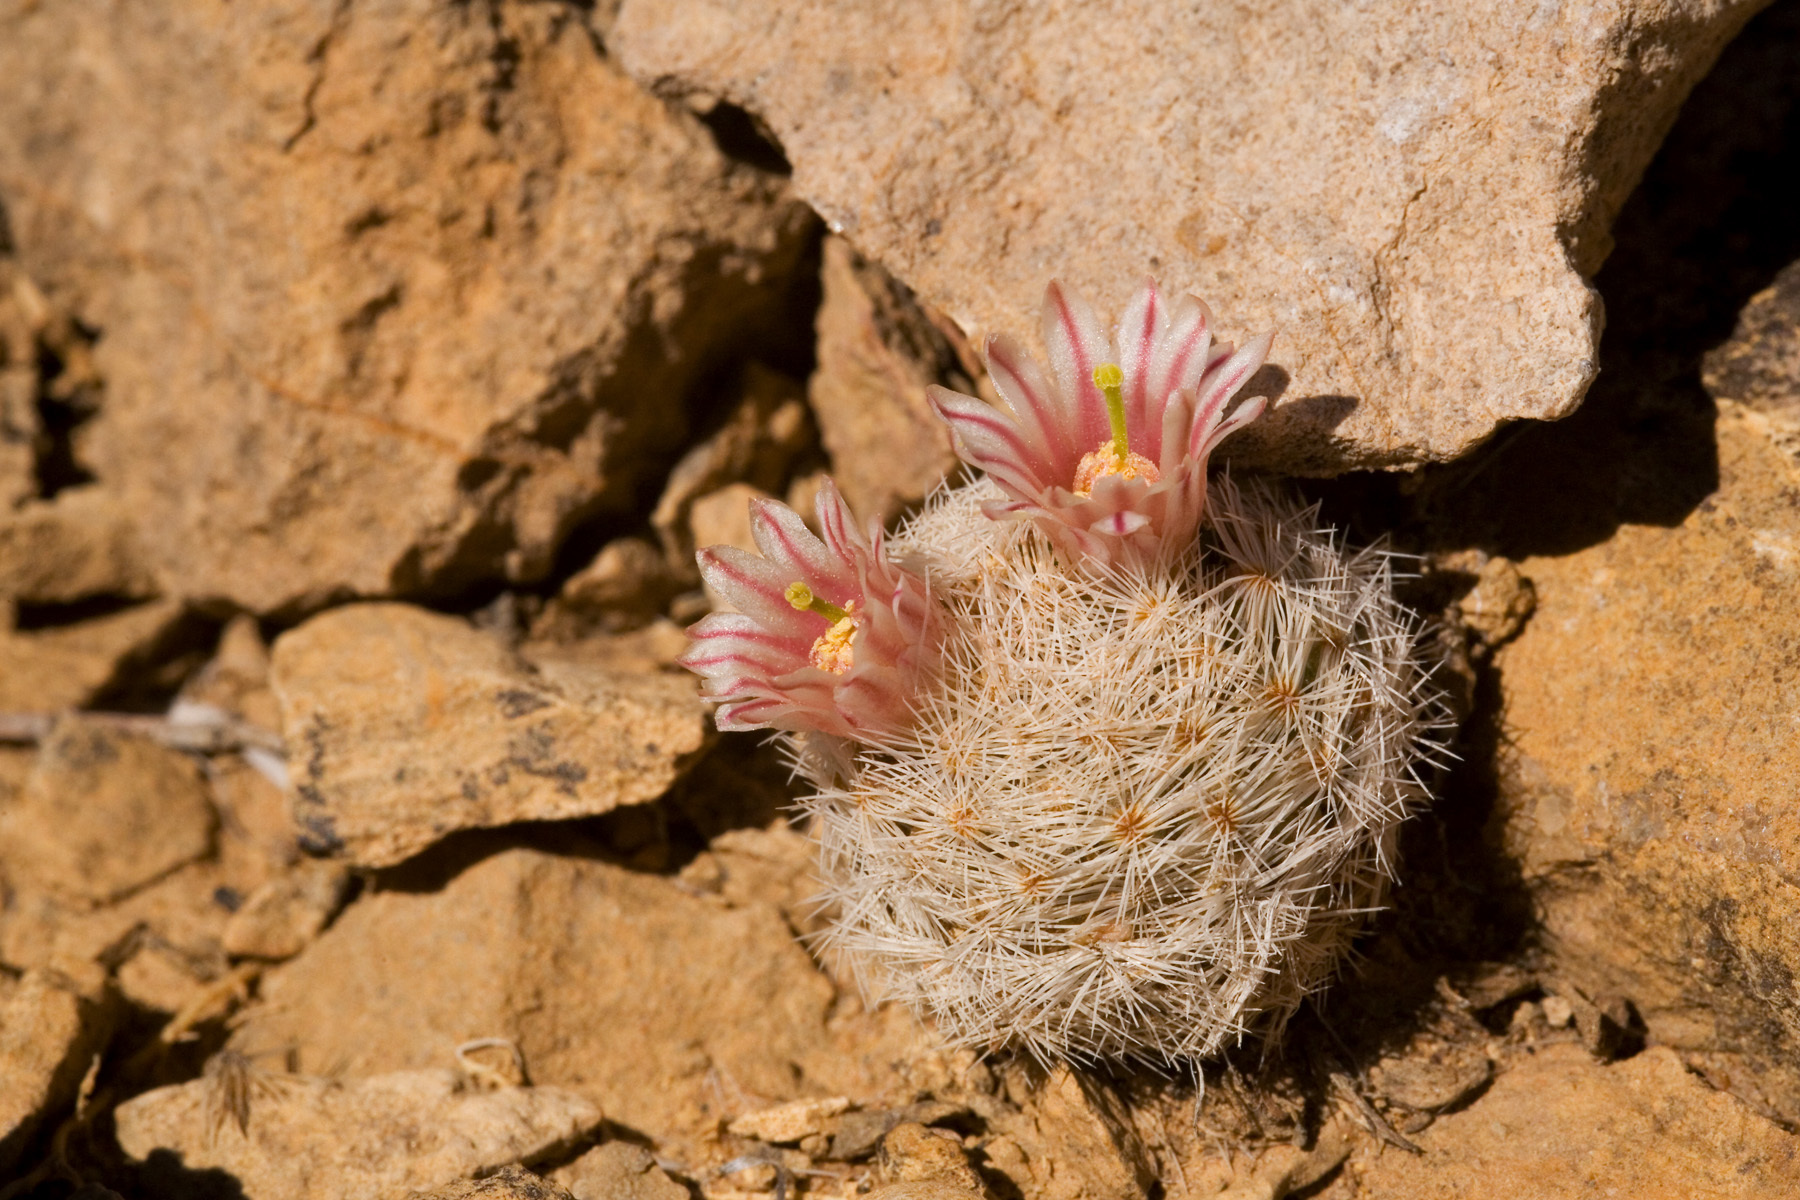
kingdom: Plantae
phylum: Tracheophyta
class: Magnoliopsida
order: Caryophyllales
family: Cactaceae
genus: Mammillaria
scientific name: Mammillaria lasiacantha
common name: Lace-spine nipple cactus
